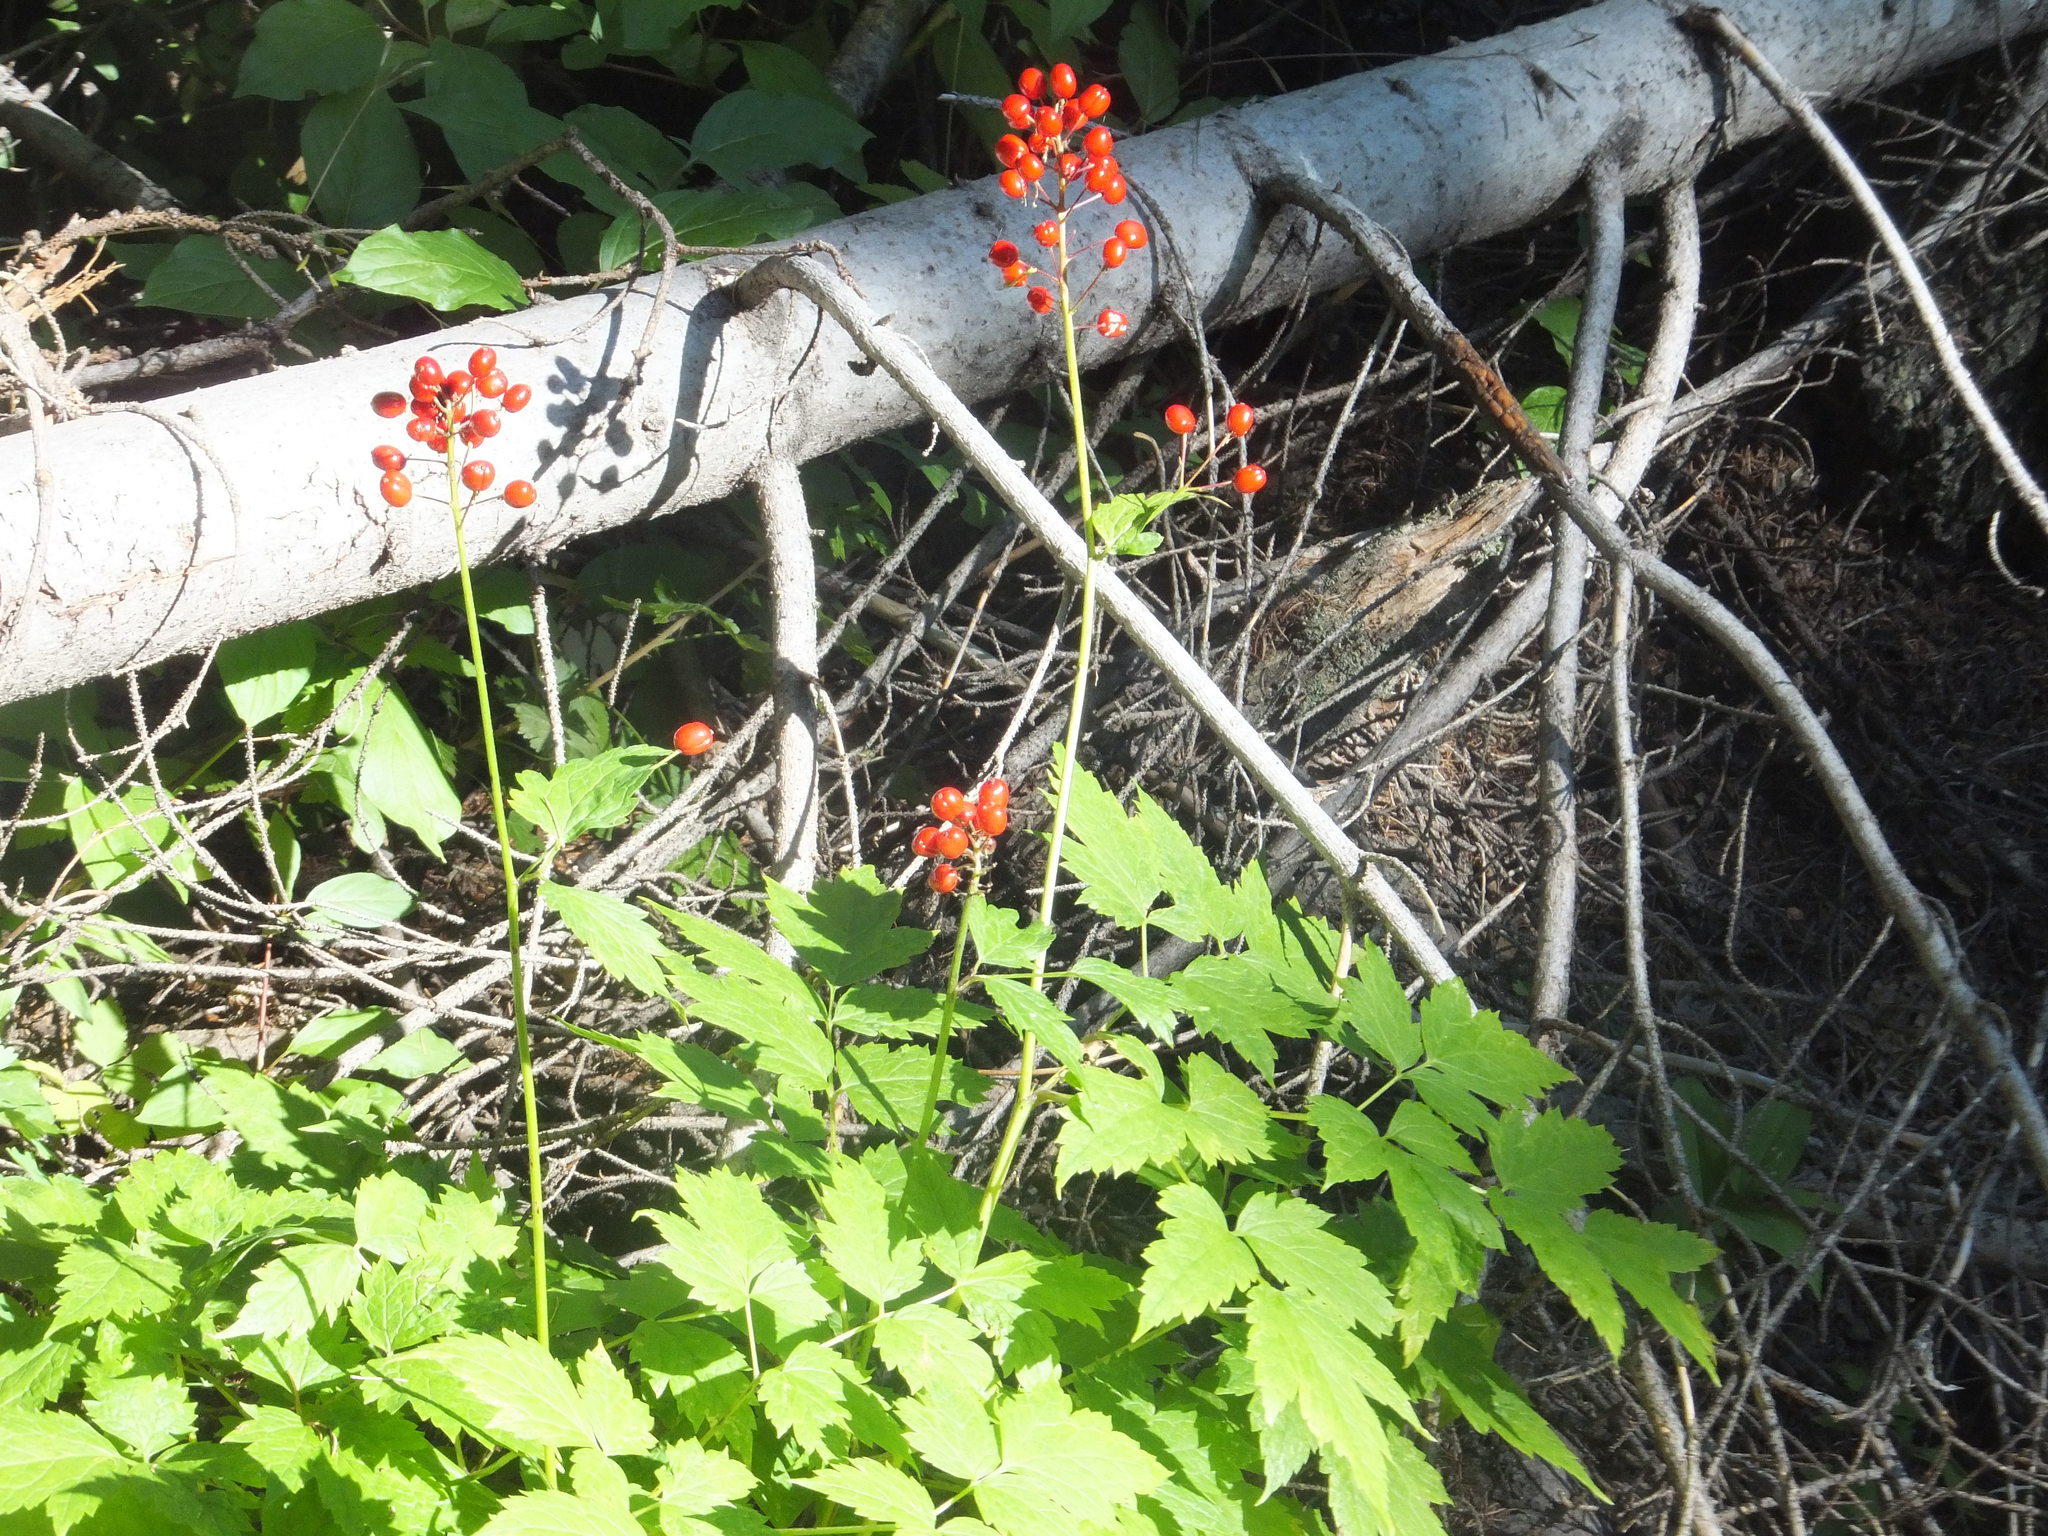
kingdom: Plantae
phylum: Tracheophyta
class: Magnoliopsida
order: Ranunculales
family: Ranunculaceae
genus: Actaea
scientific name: Actaea rubra
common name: Red baneberry
